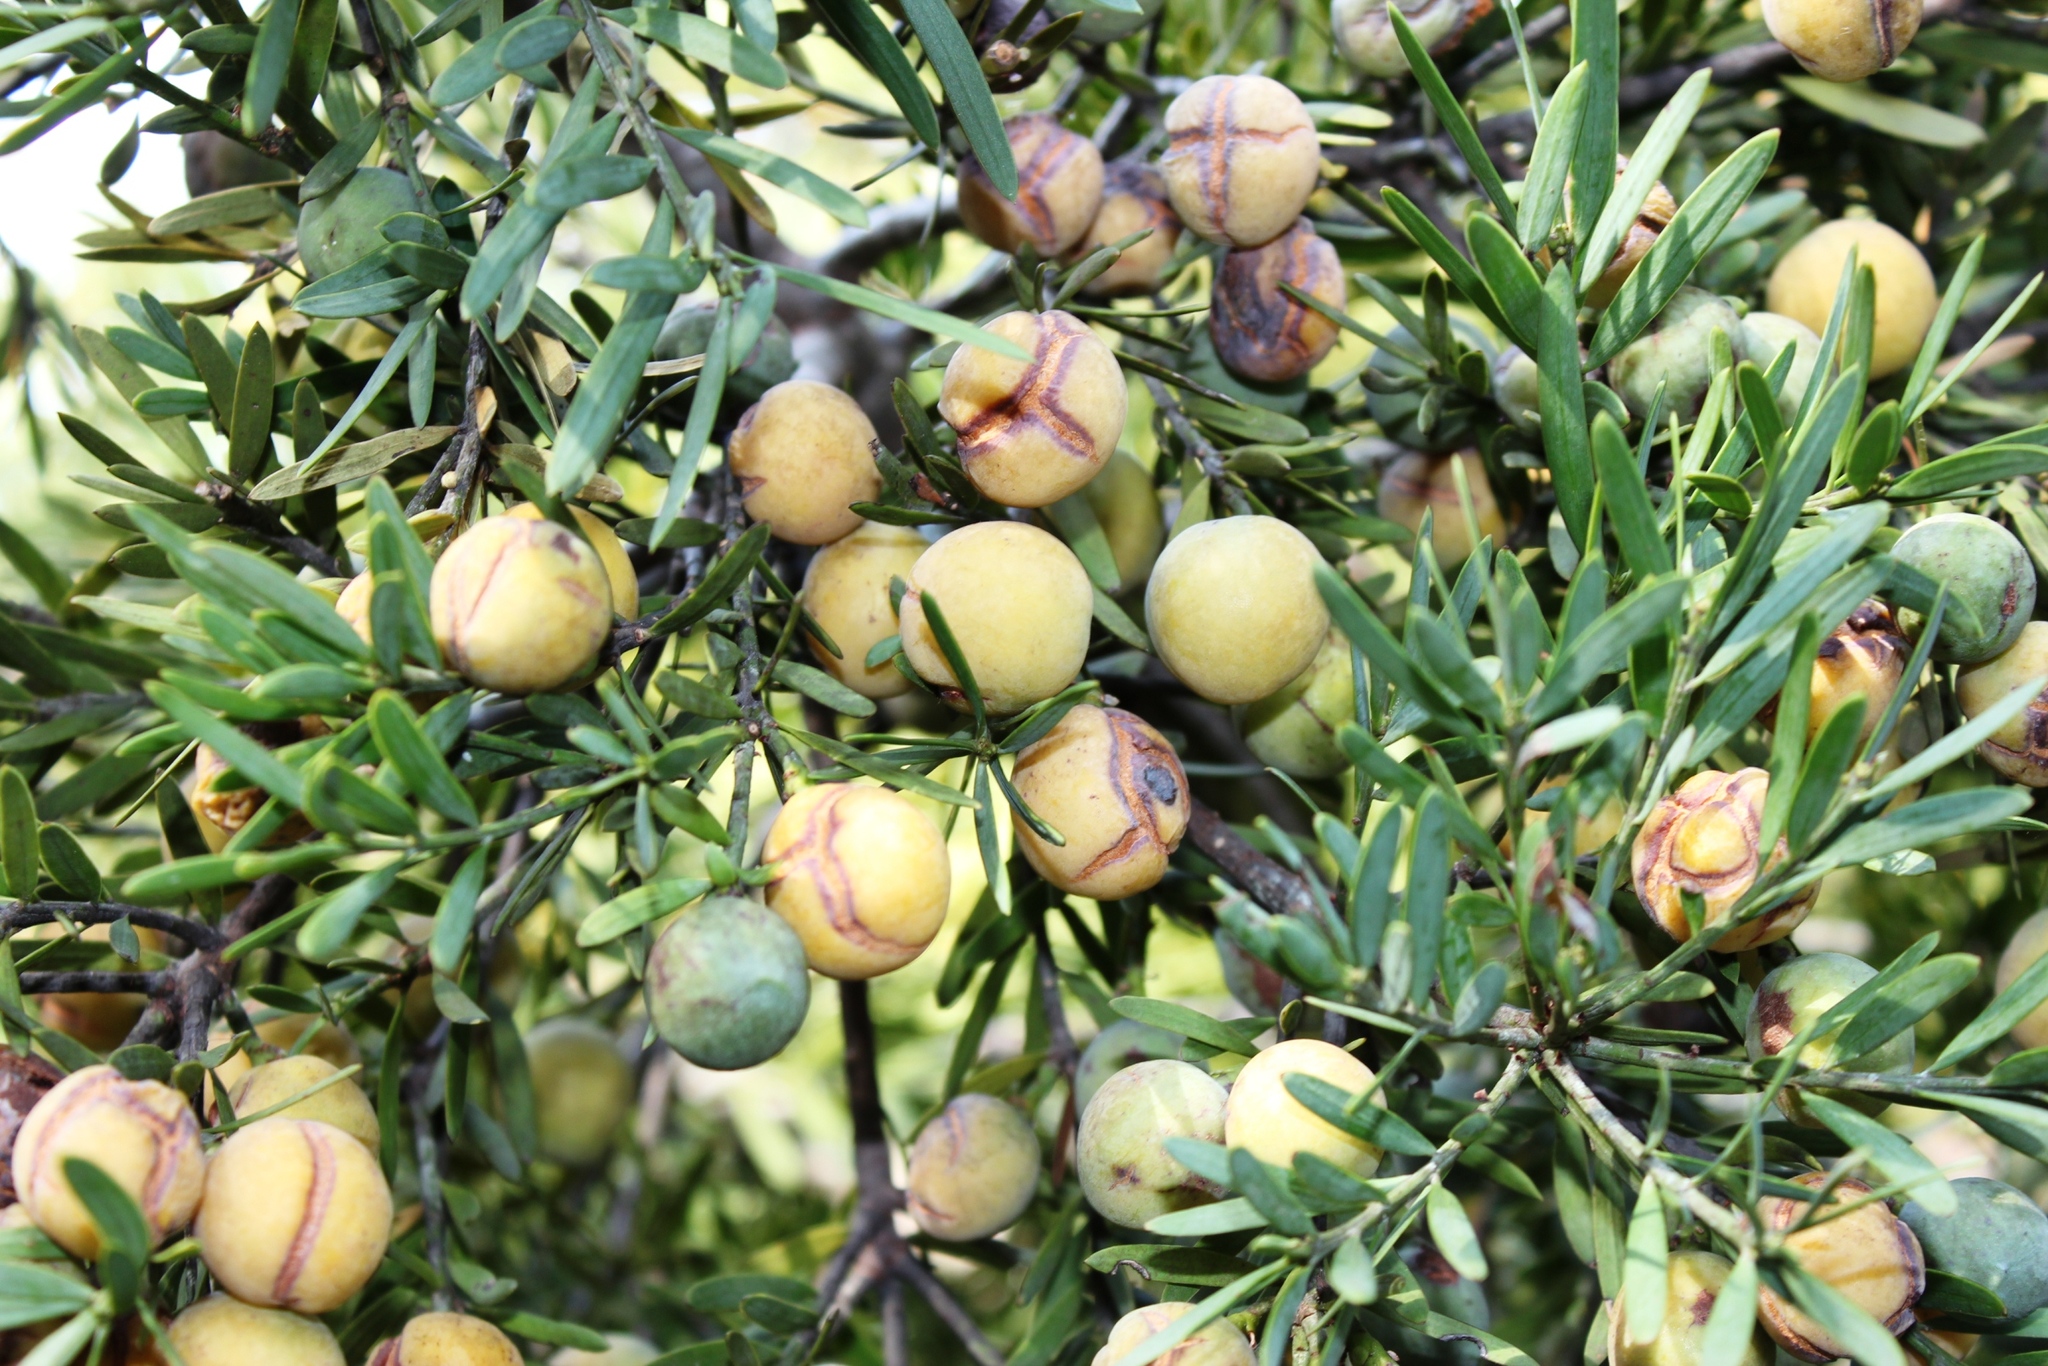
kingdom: Plantae
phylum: Tracheophyta
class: Pinopsida
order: Pinales
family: Podocarpaceae
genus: Afrocarpus
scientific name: Afrocarpus falcatus
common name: Bastard yellowwood
